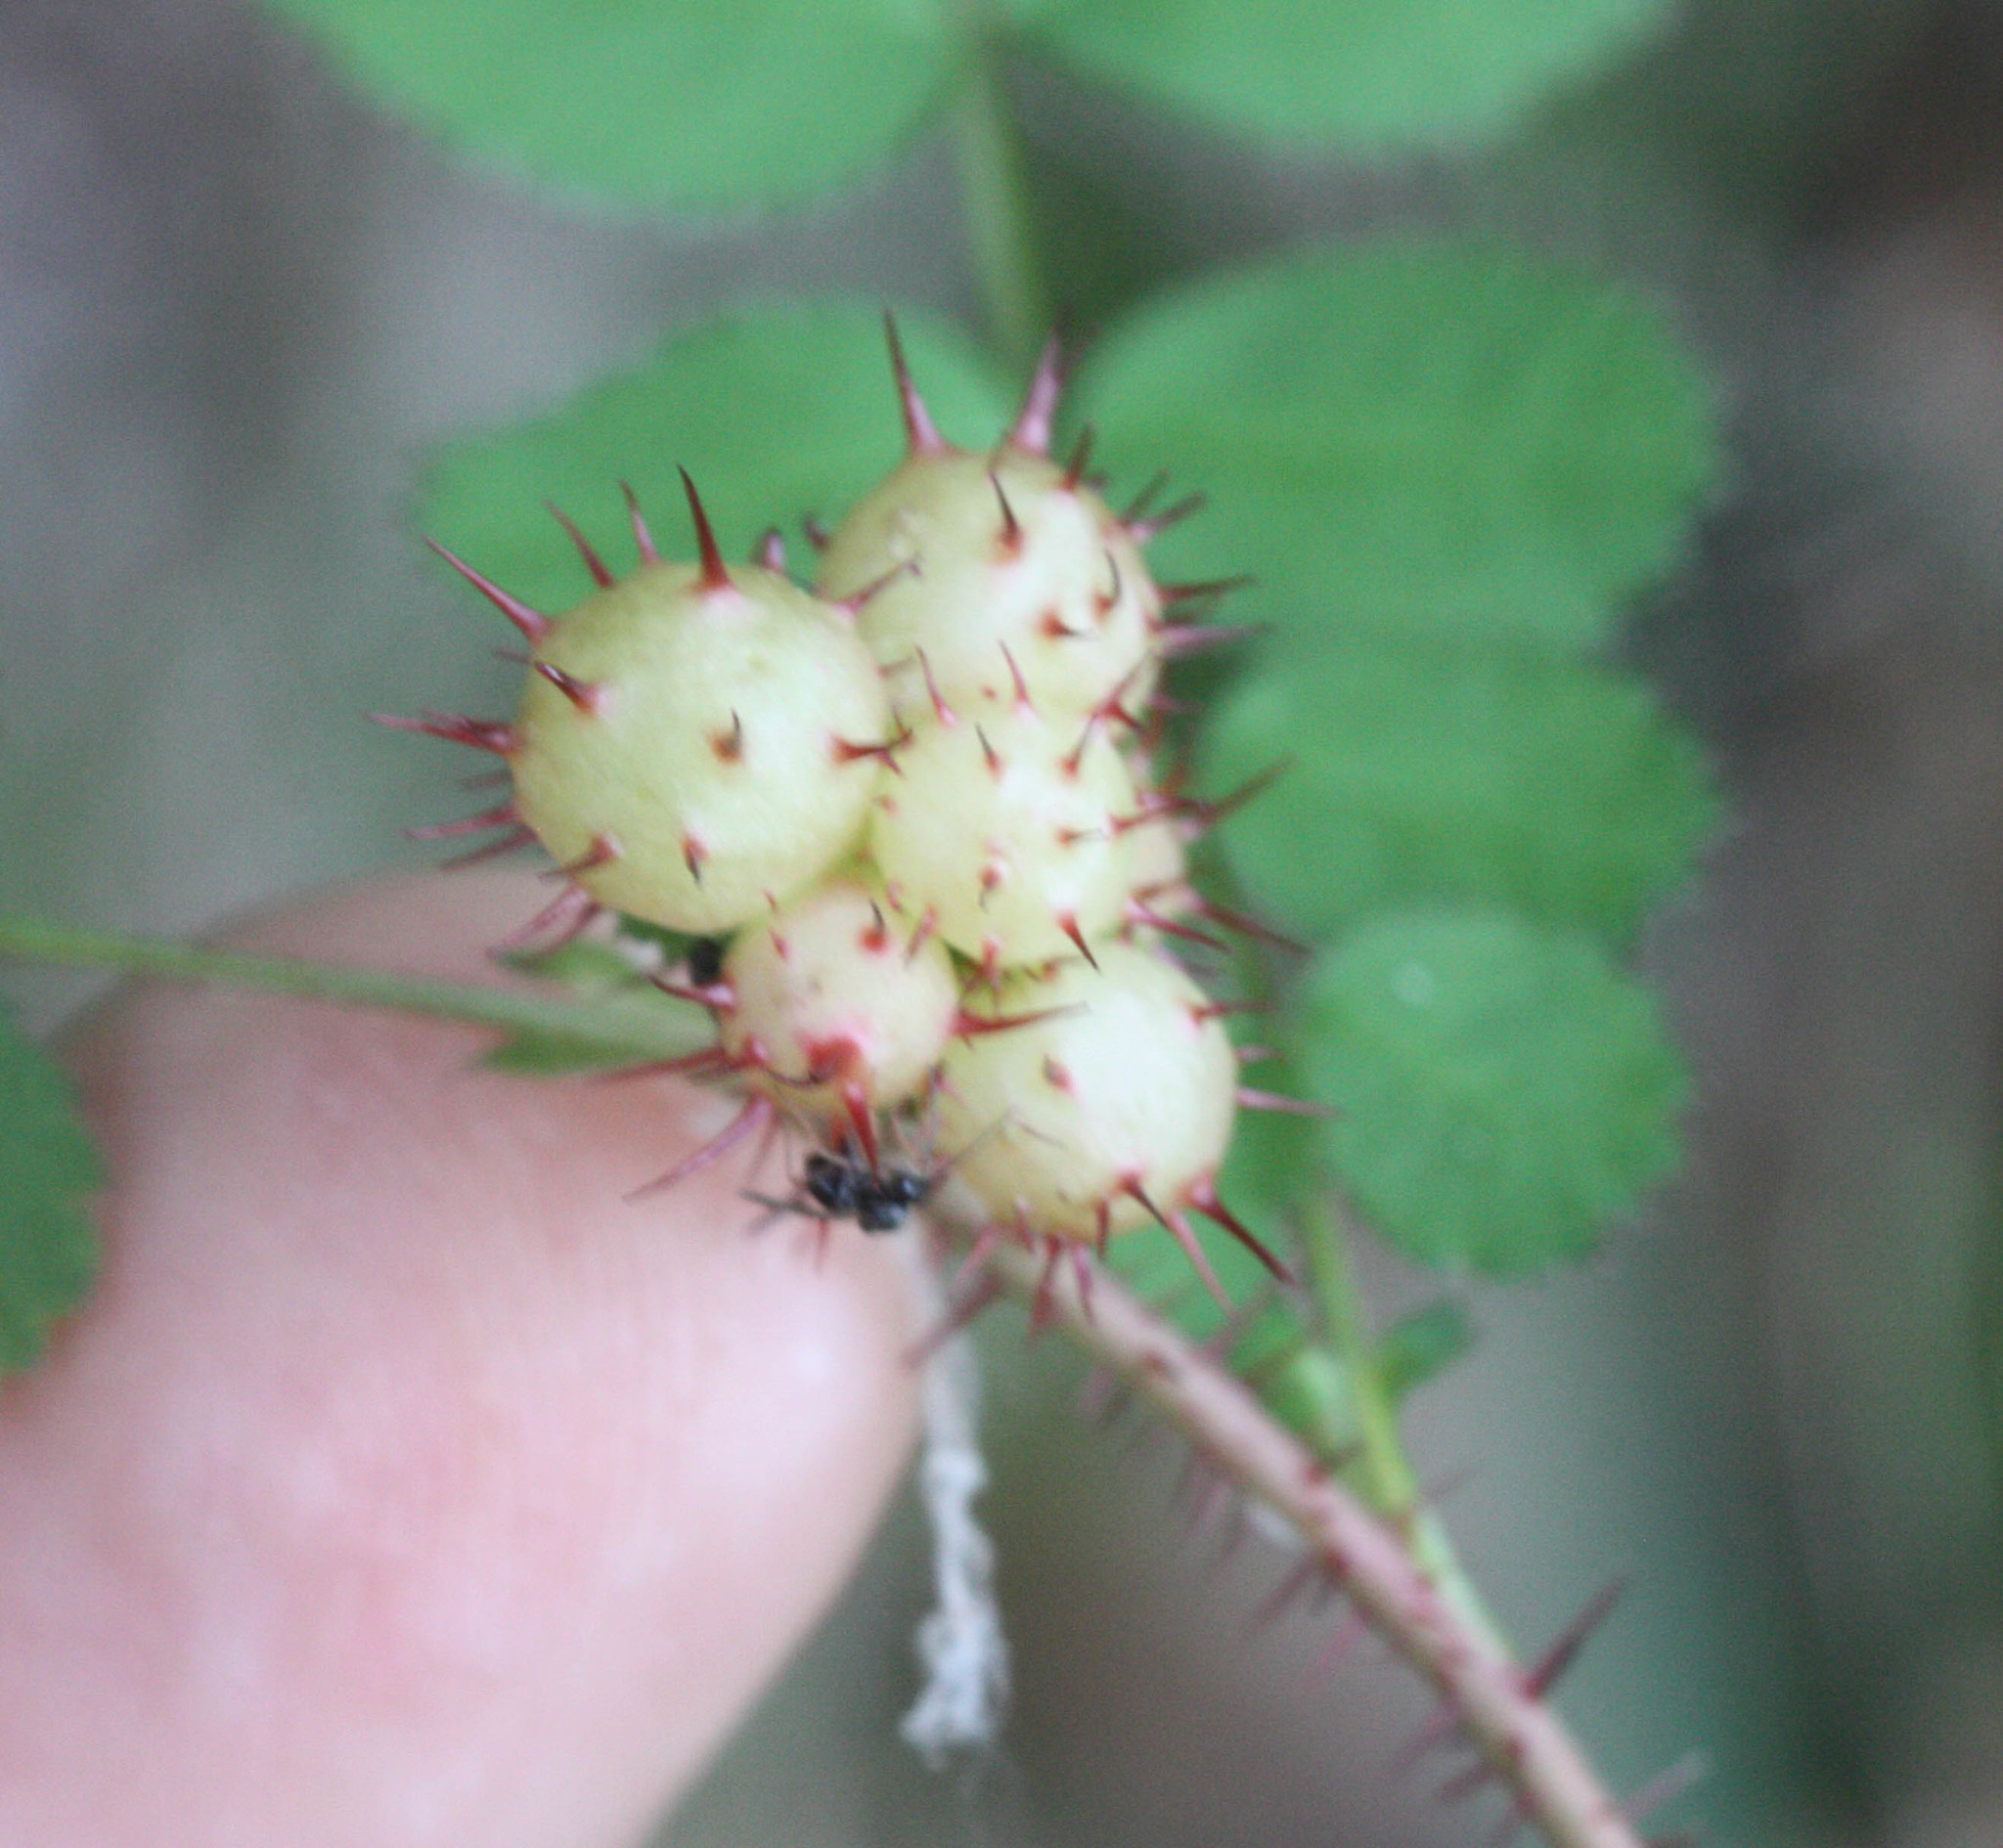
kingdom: Animalia
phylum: Arthropoda
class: Insecta
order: Hymenoptera
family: Cynipidae
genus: Diplolepis
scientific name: Diplolepis polita
